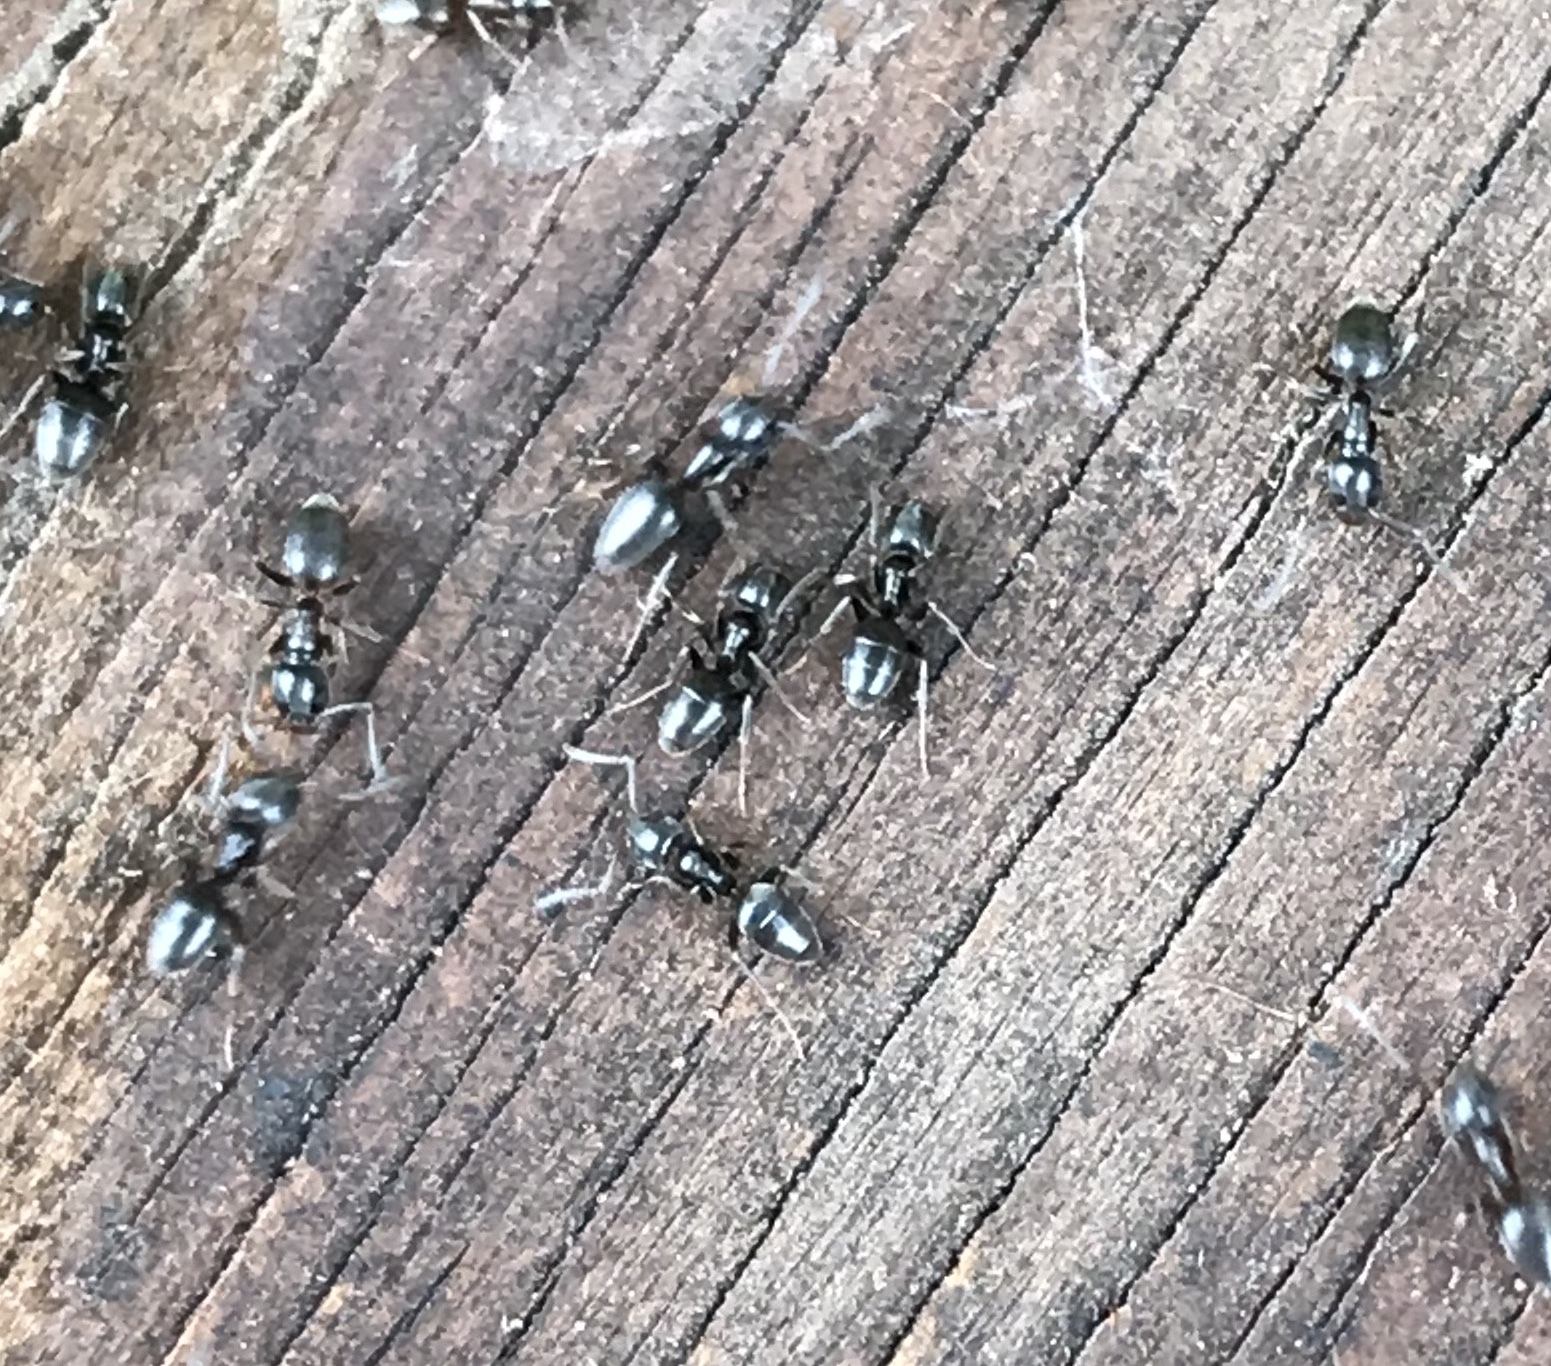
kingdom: Animalia
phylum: Arthropoda
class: Insecta
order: Hymenoptera
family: Formicidae
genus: Tapinoma
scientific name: Tapinoma sessile
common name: Odorous house ant
